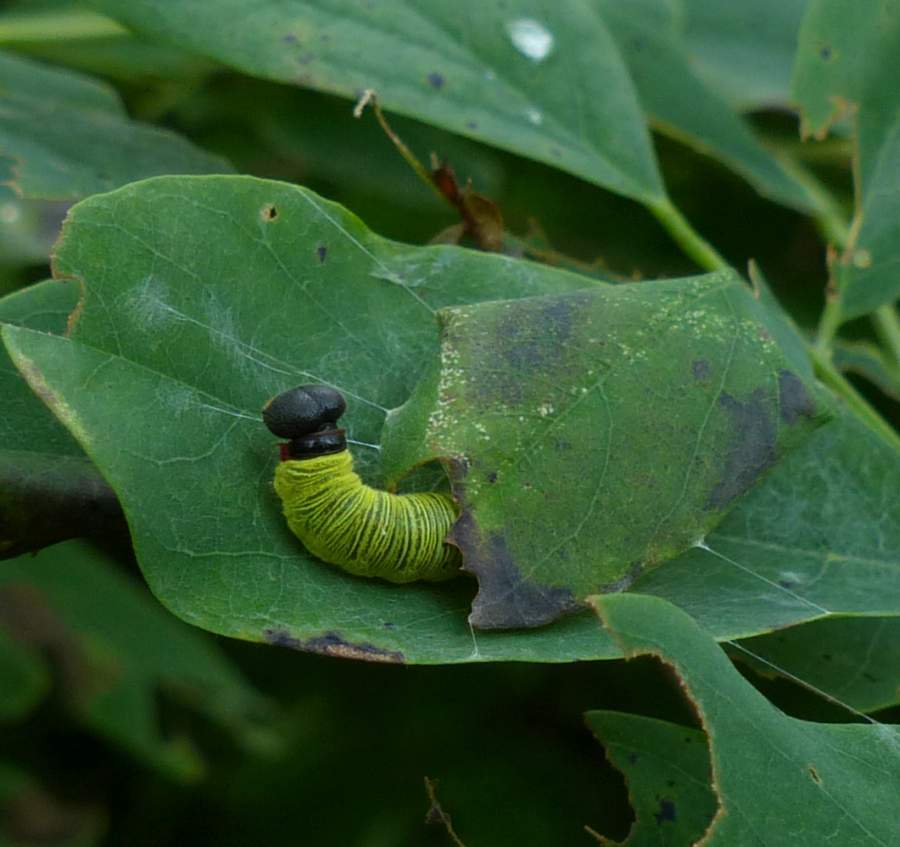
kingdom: Animalia
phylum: Arthropoda
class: Insecta
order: Lepidoptera
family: Hesperiidae
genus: Epargyreus
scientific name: Epargyreus clarus
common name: Silver-spotted skipper
